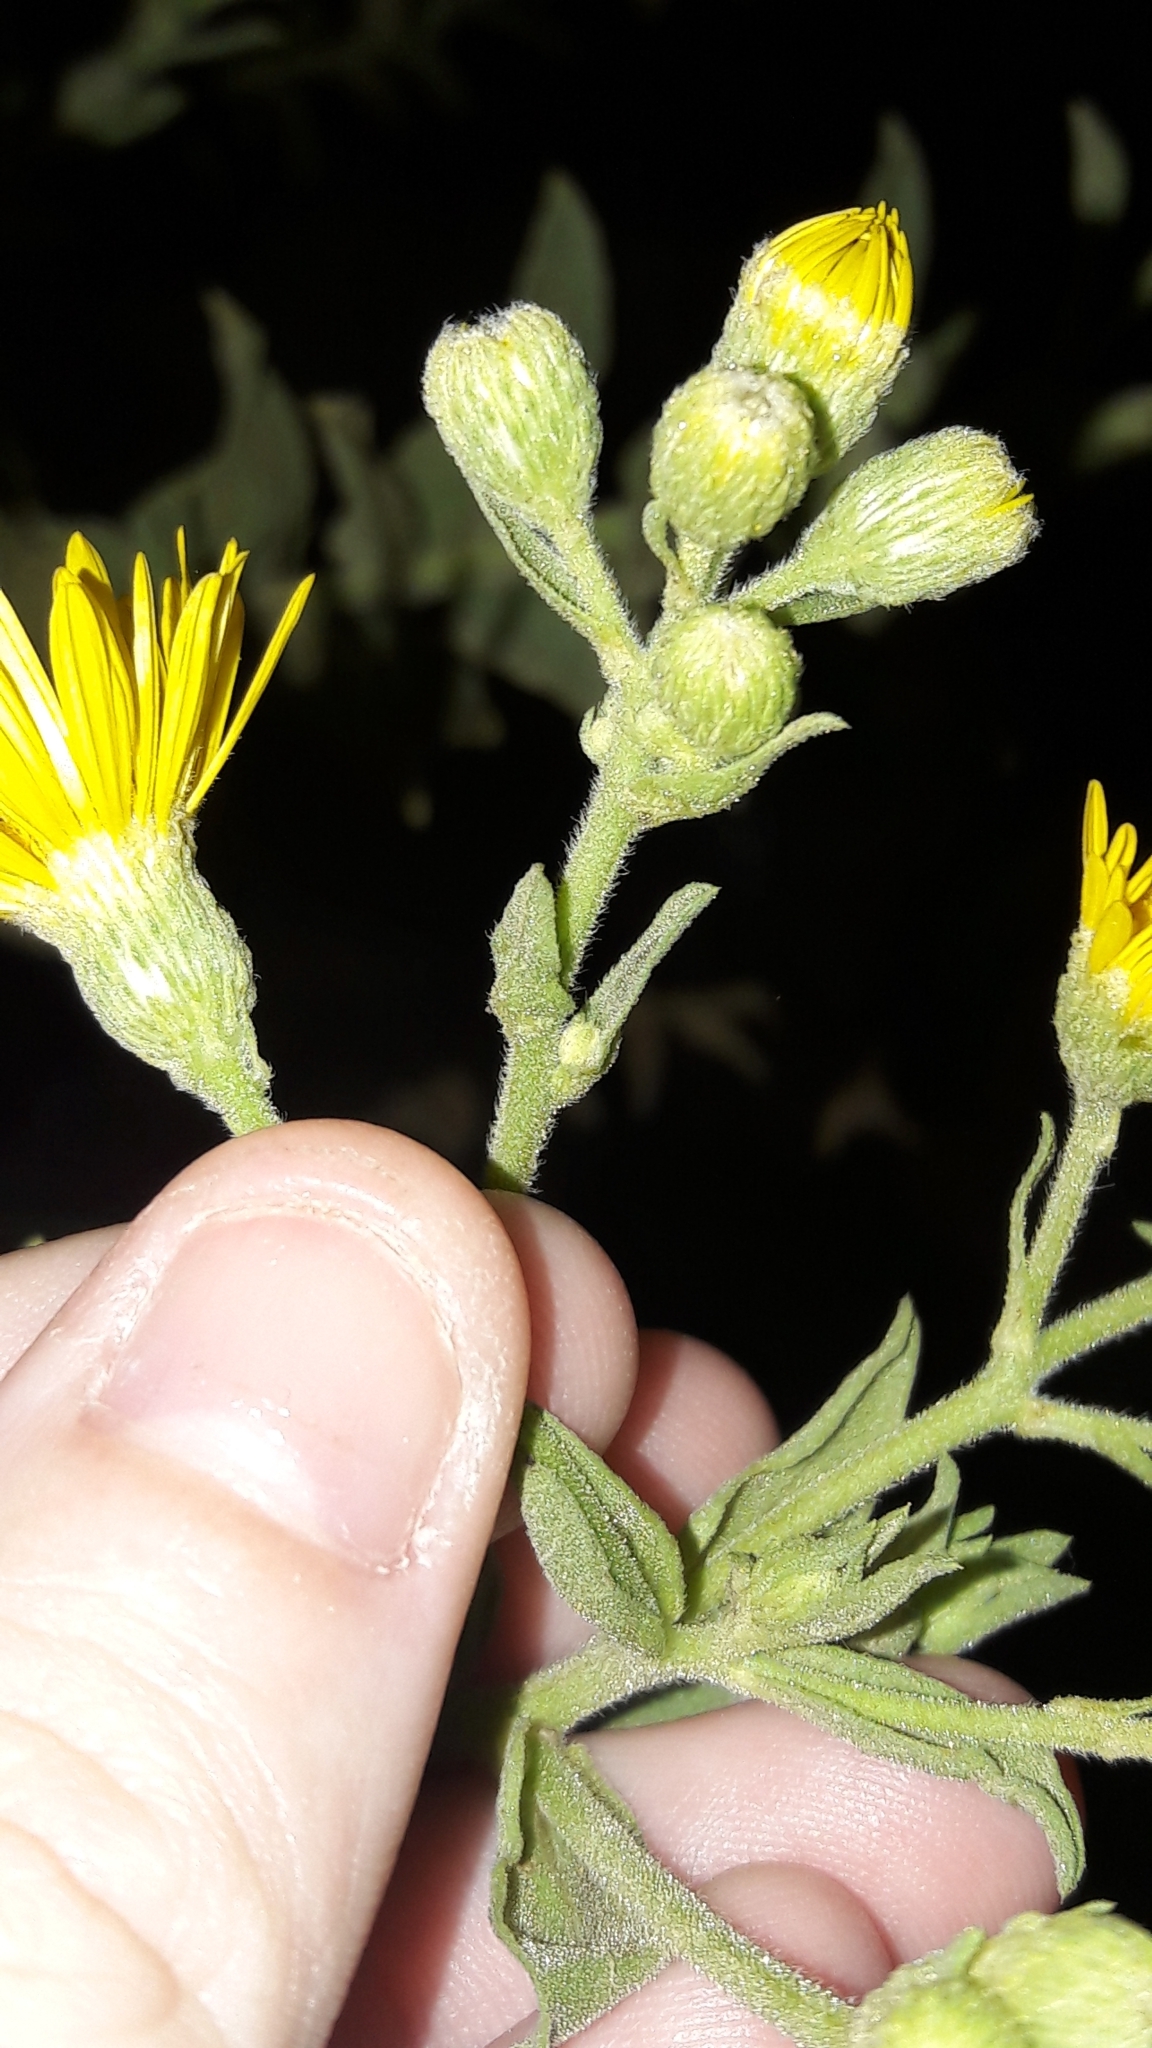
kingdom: Plantae
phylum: Tracheophyta
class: Magnoliopsida
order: Asterales
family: Asteraceae
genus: Heterotheca
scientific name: Heterotheca subaxillaris
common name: Camphorweed
